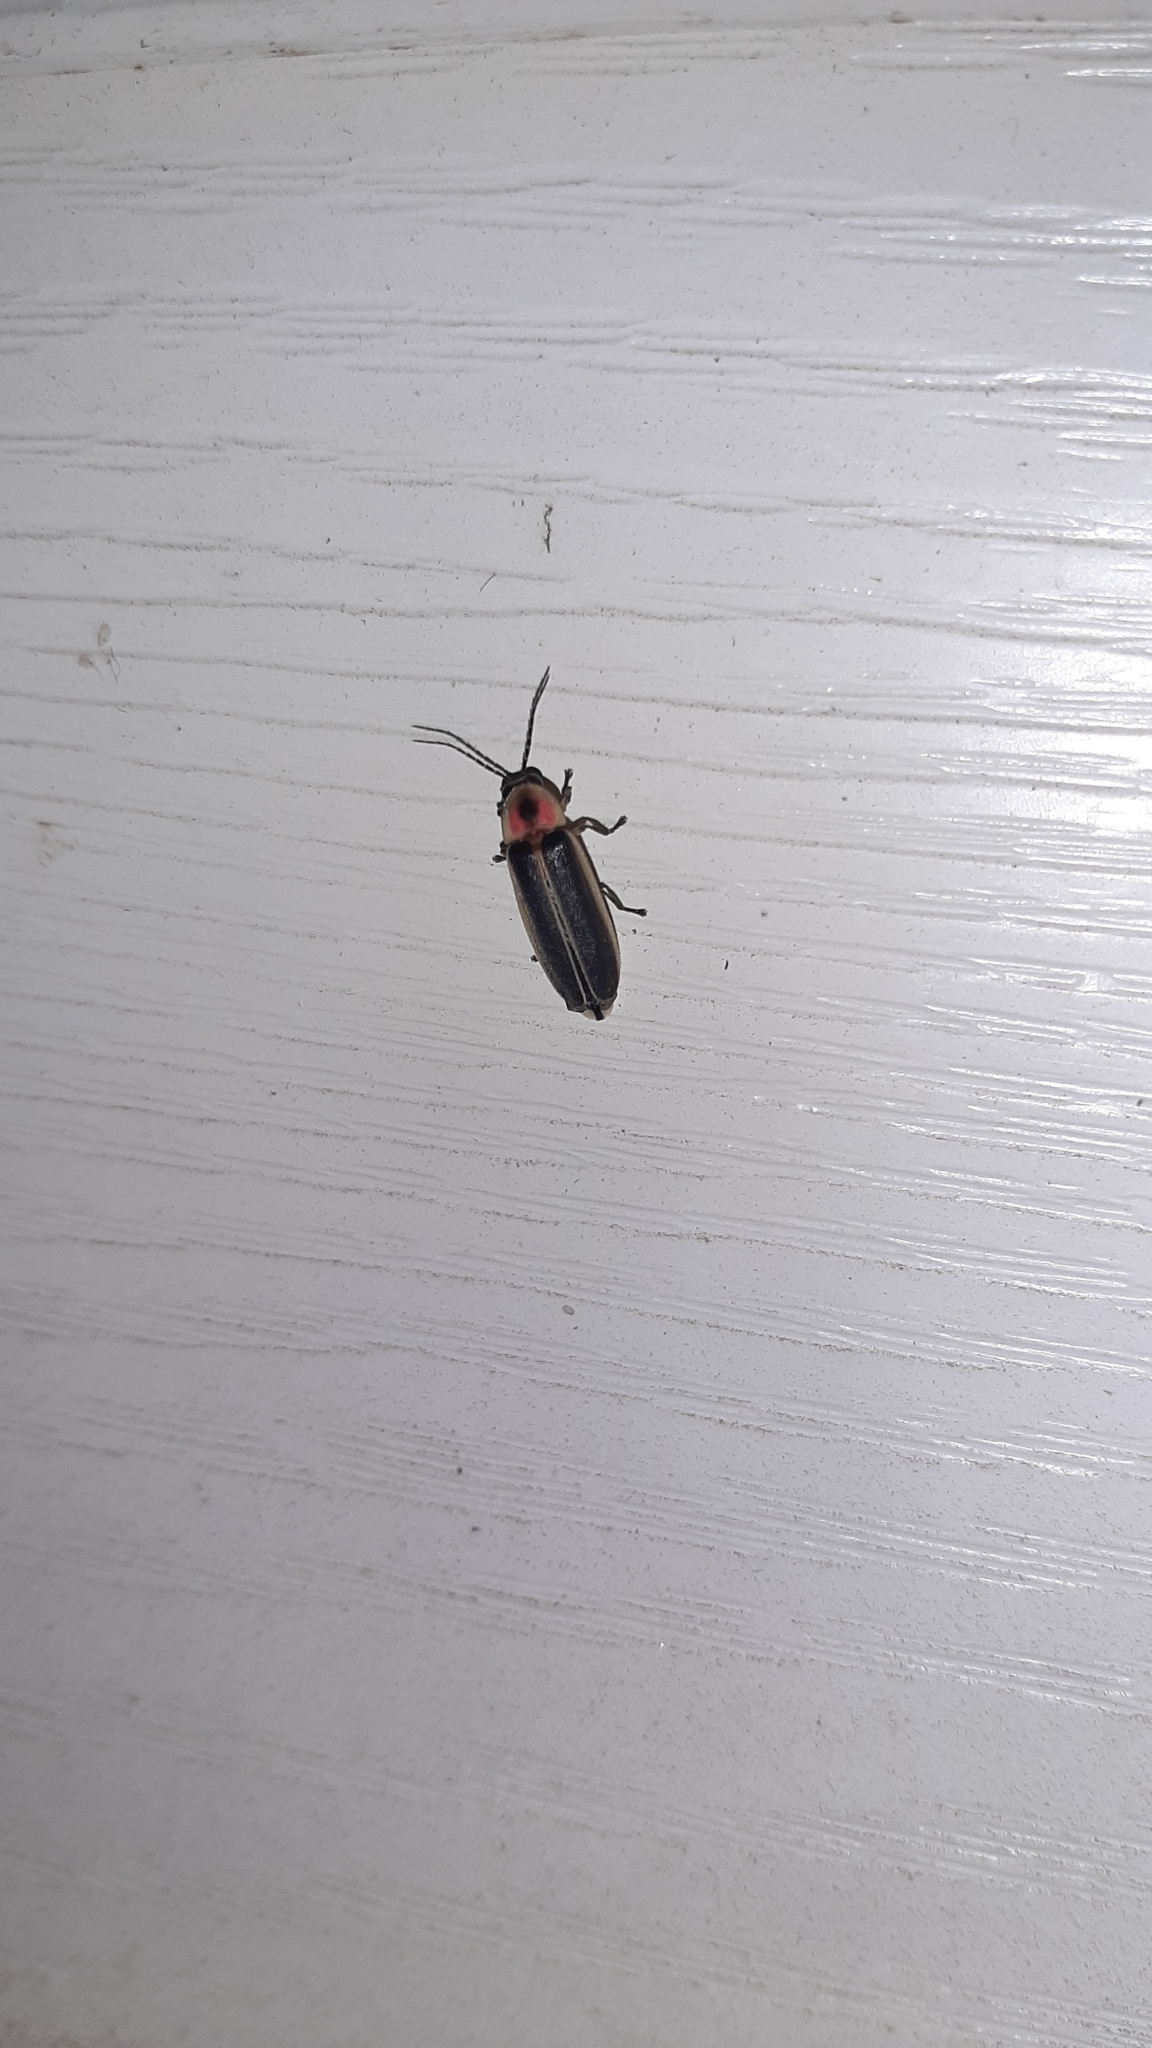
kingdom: Animalia
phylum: Arthropoda
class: Insecta
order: Coleoptera
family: Lampyridae
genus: Photinus
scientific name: Photinus pyralis
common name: Big dipper firefly
